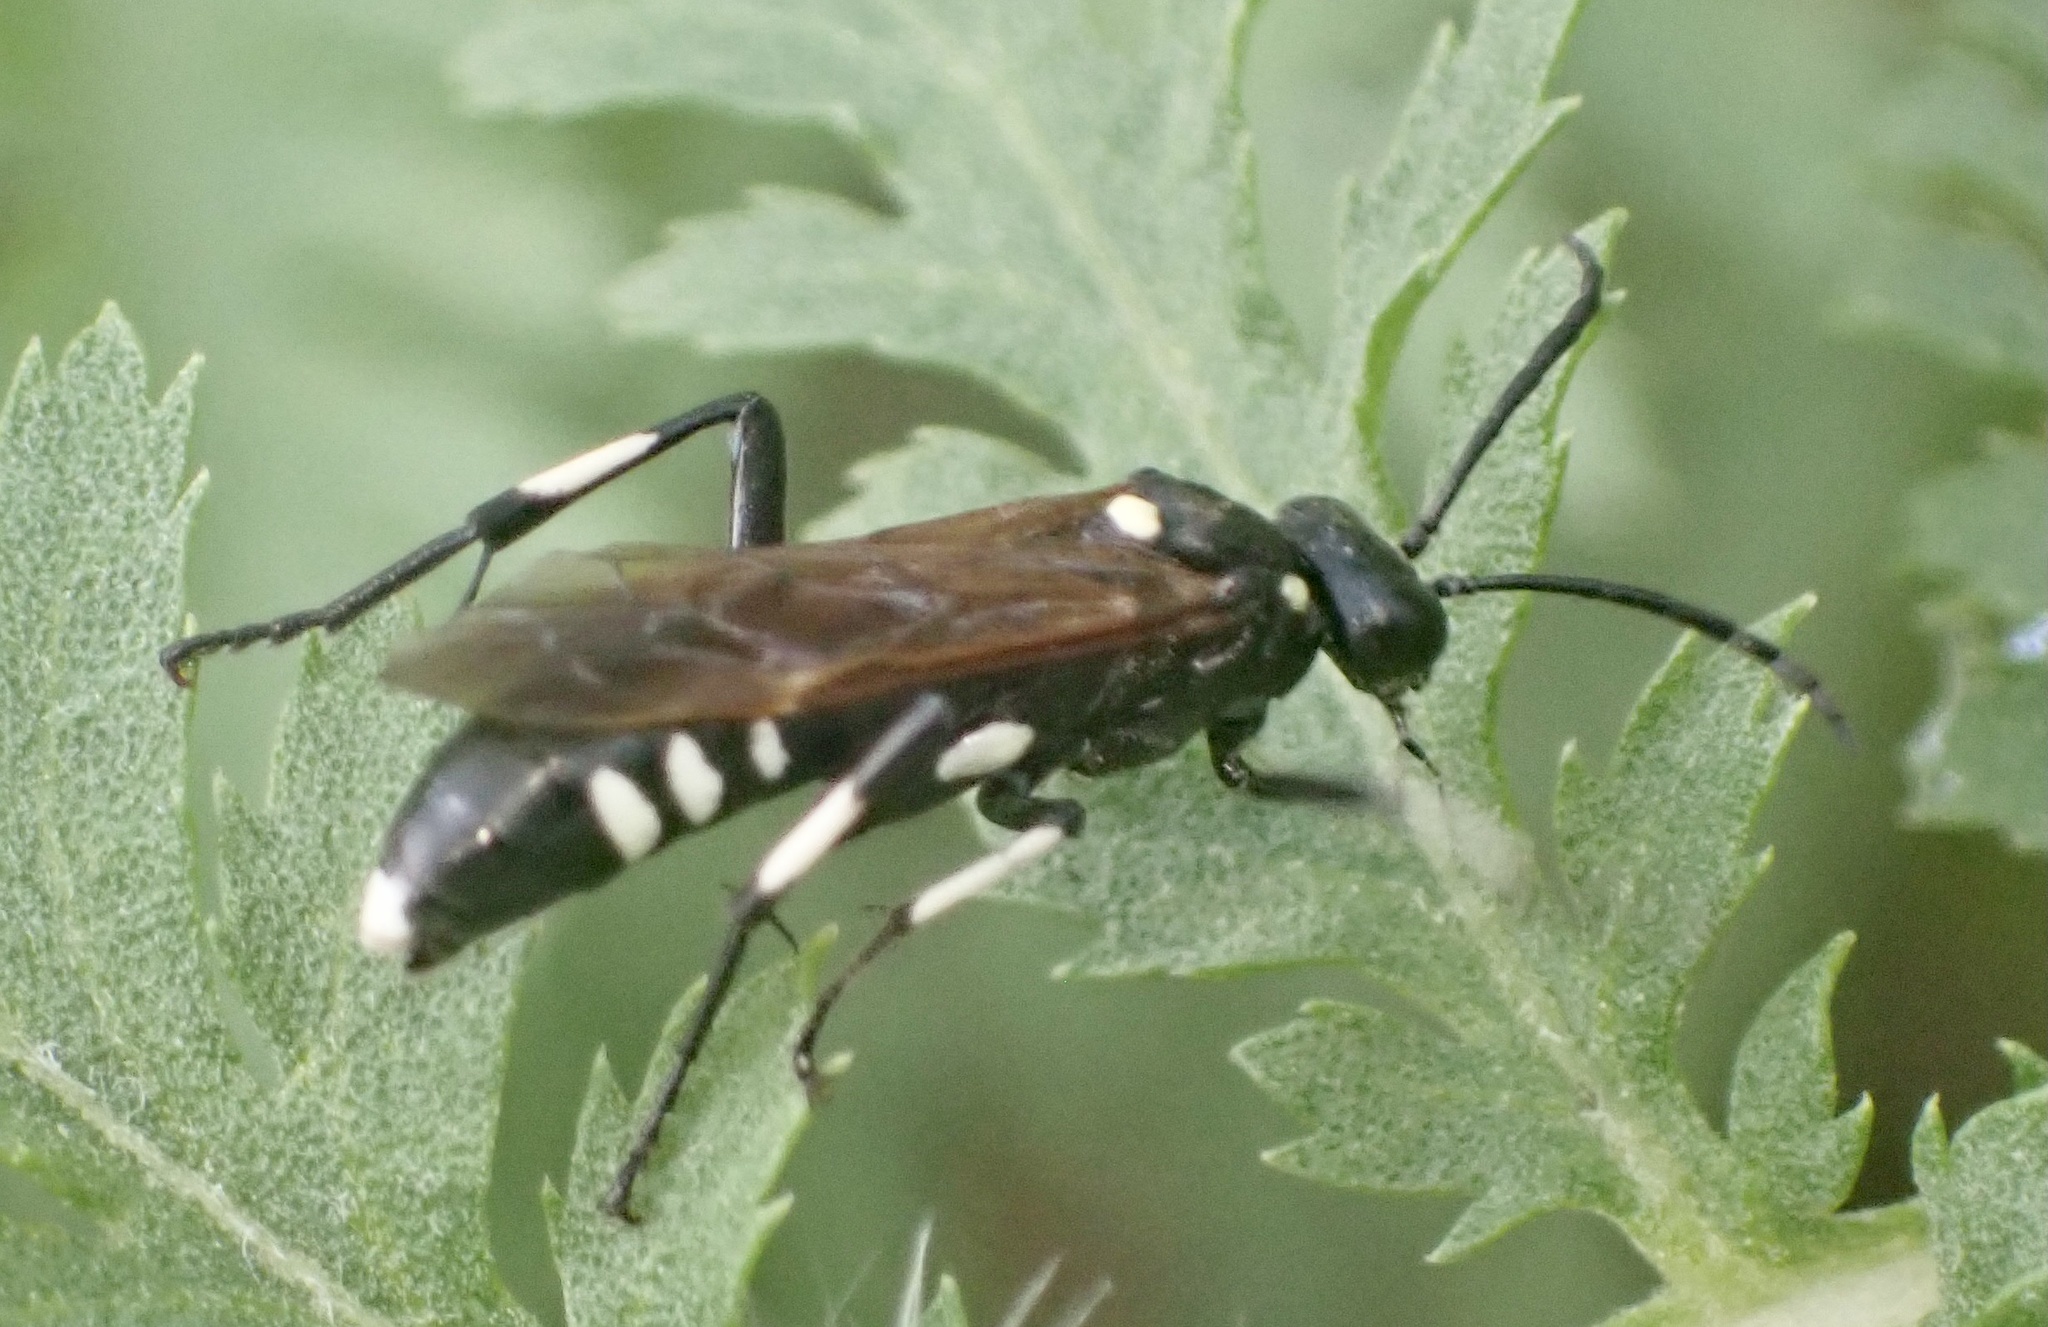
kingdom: Animalia
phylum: Arthropoda
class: Insecta
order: Hymenoptera
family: Tenthredinidae
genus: Macrophya
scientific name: Macrophya duodecimpunctata
